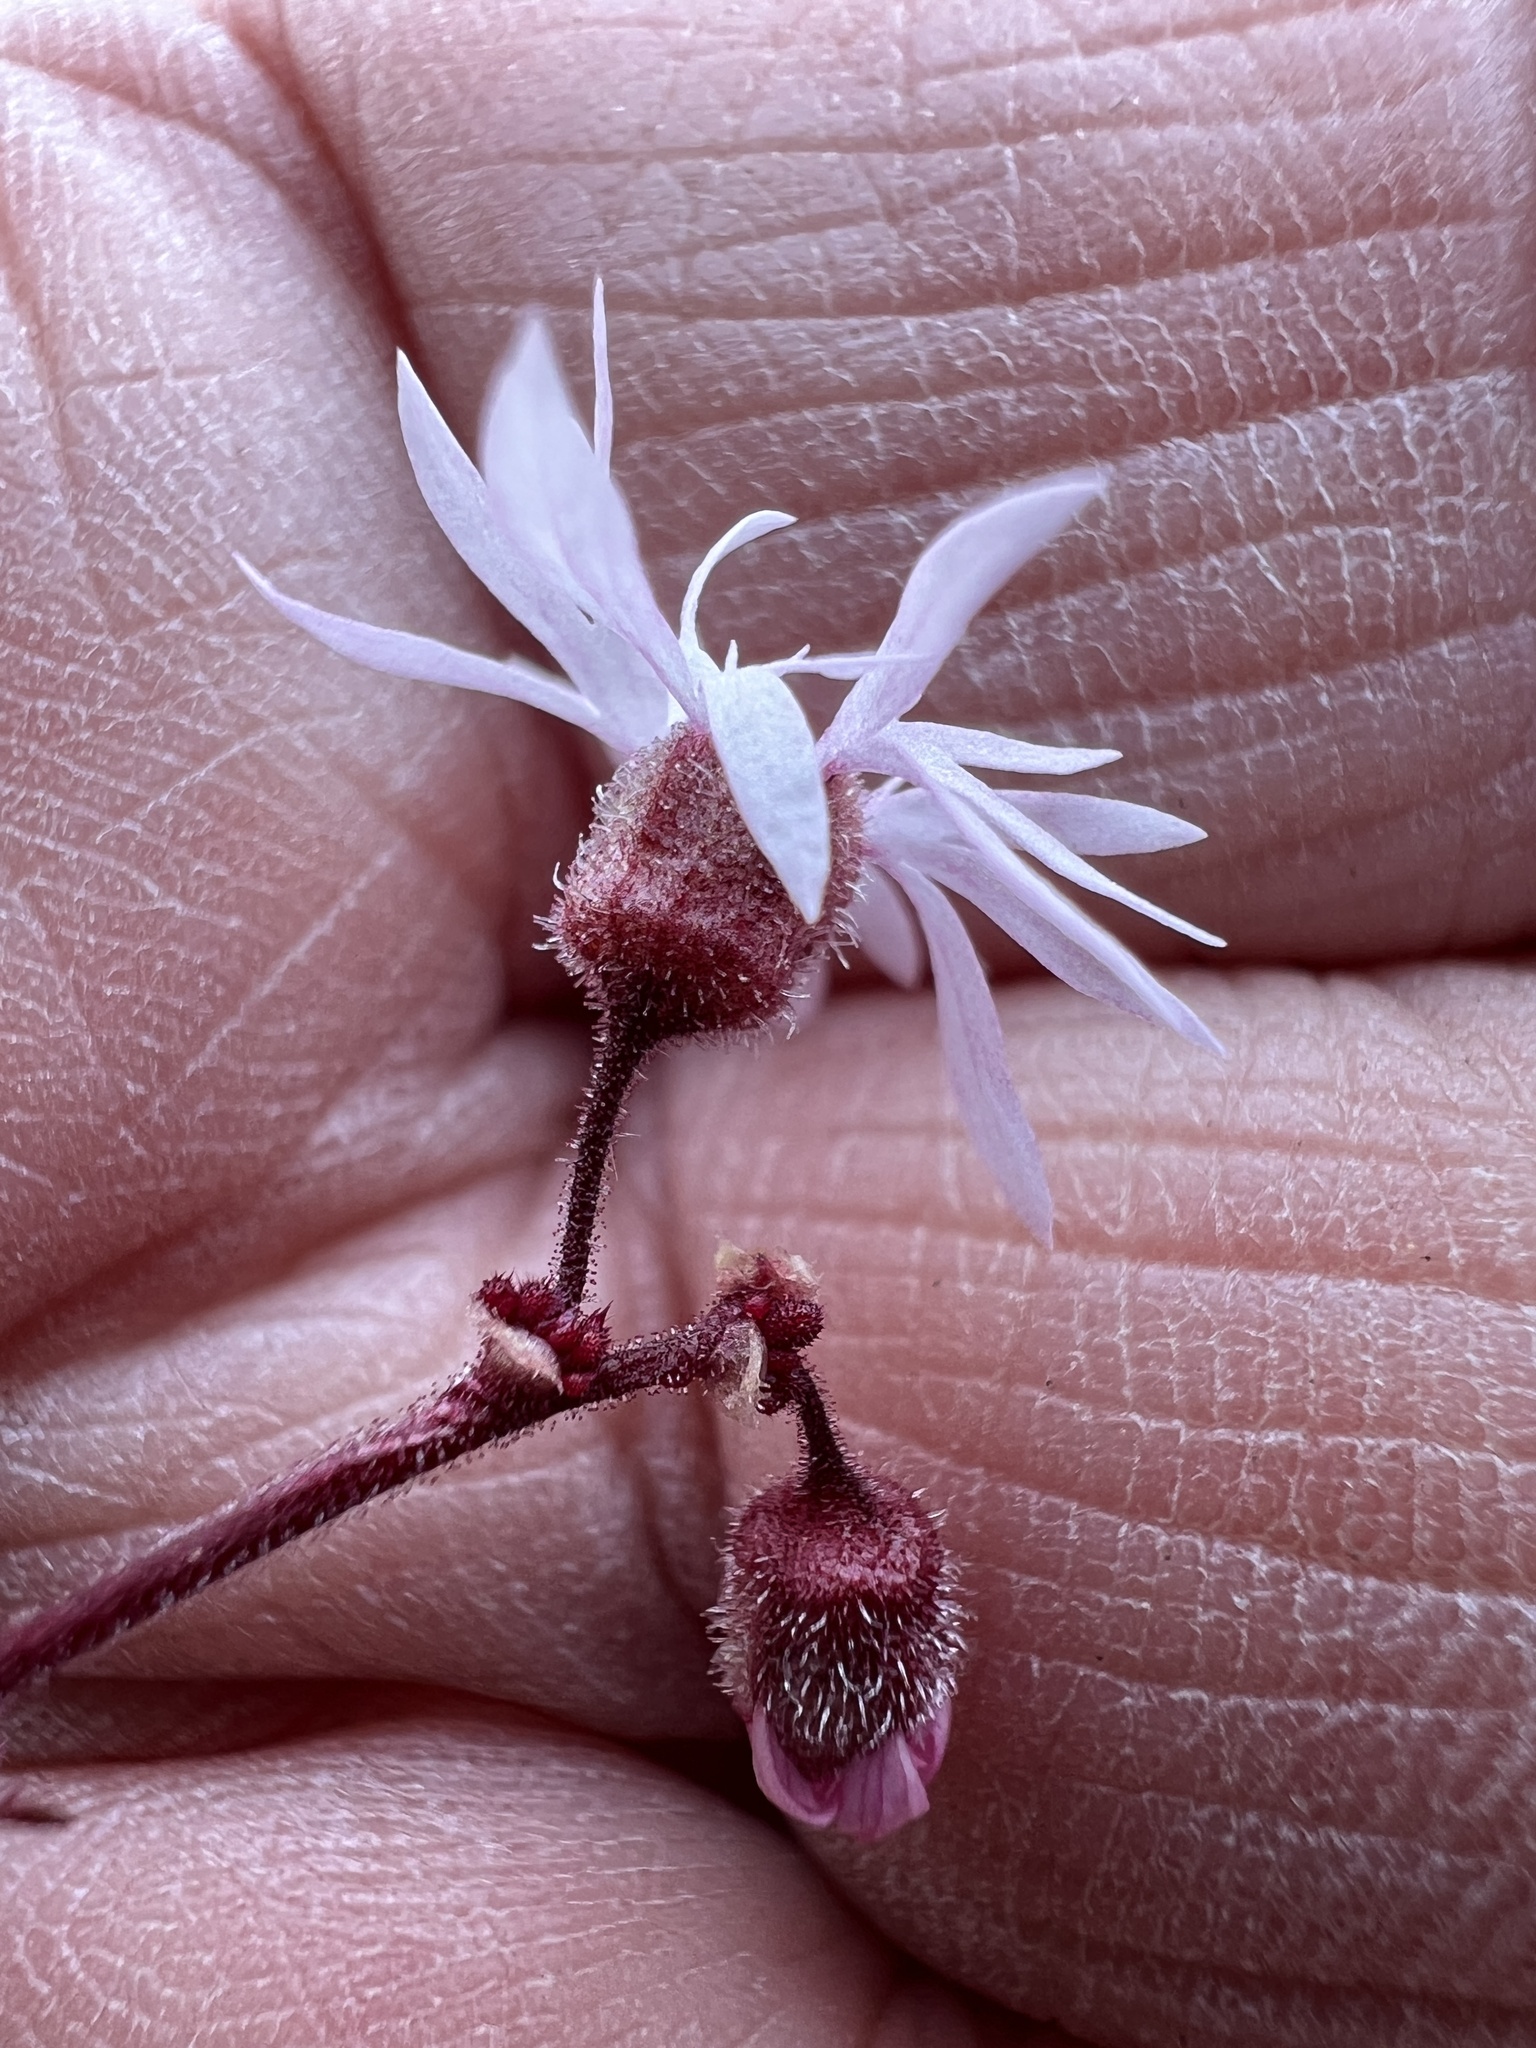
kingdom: Plantae
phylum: Tracheophyta
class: Magnoliopsida
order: Saxifragales
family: Saxifragaceae
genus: Lithophragma
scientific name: Lithophragma glabrum
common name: Bulbous prairie-star
